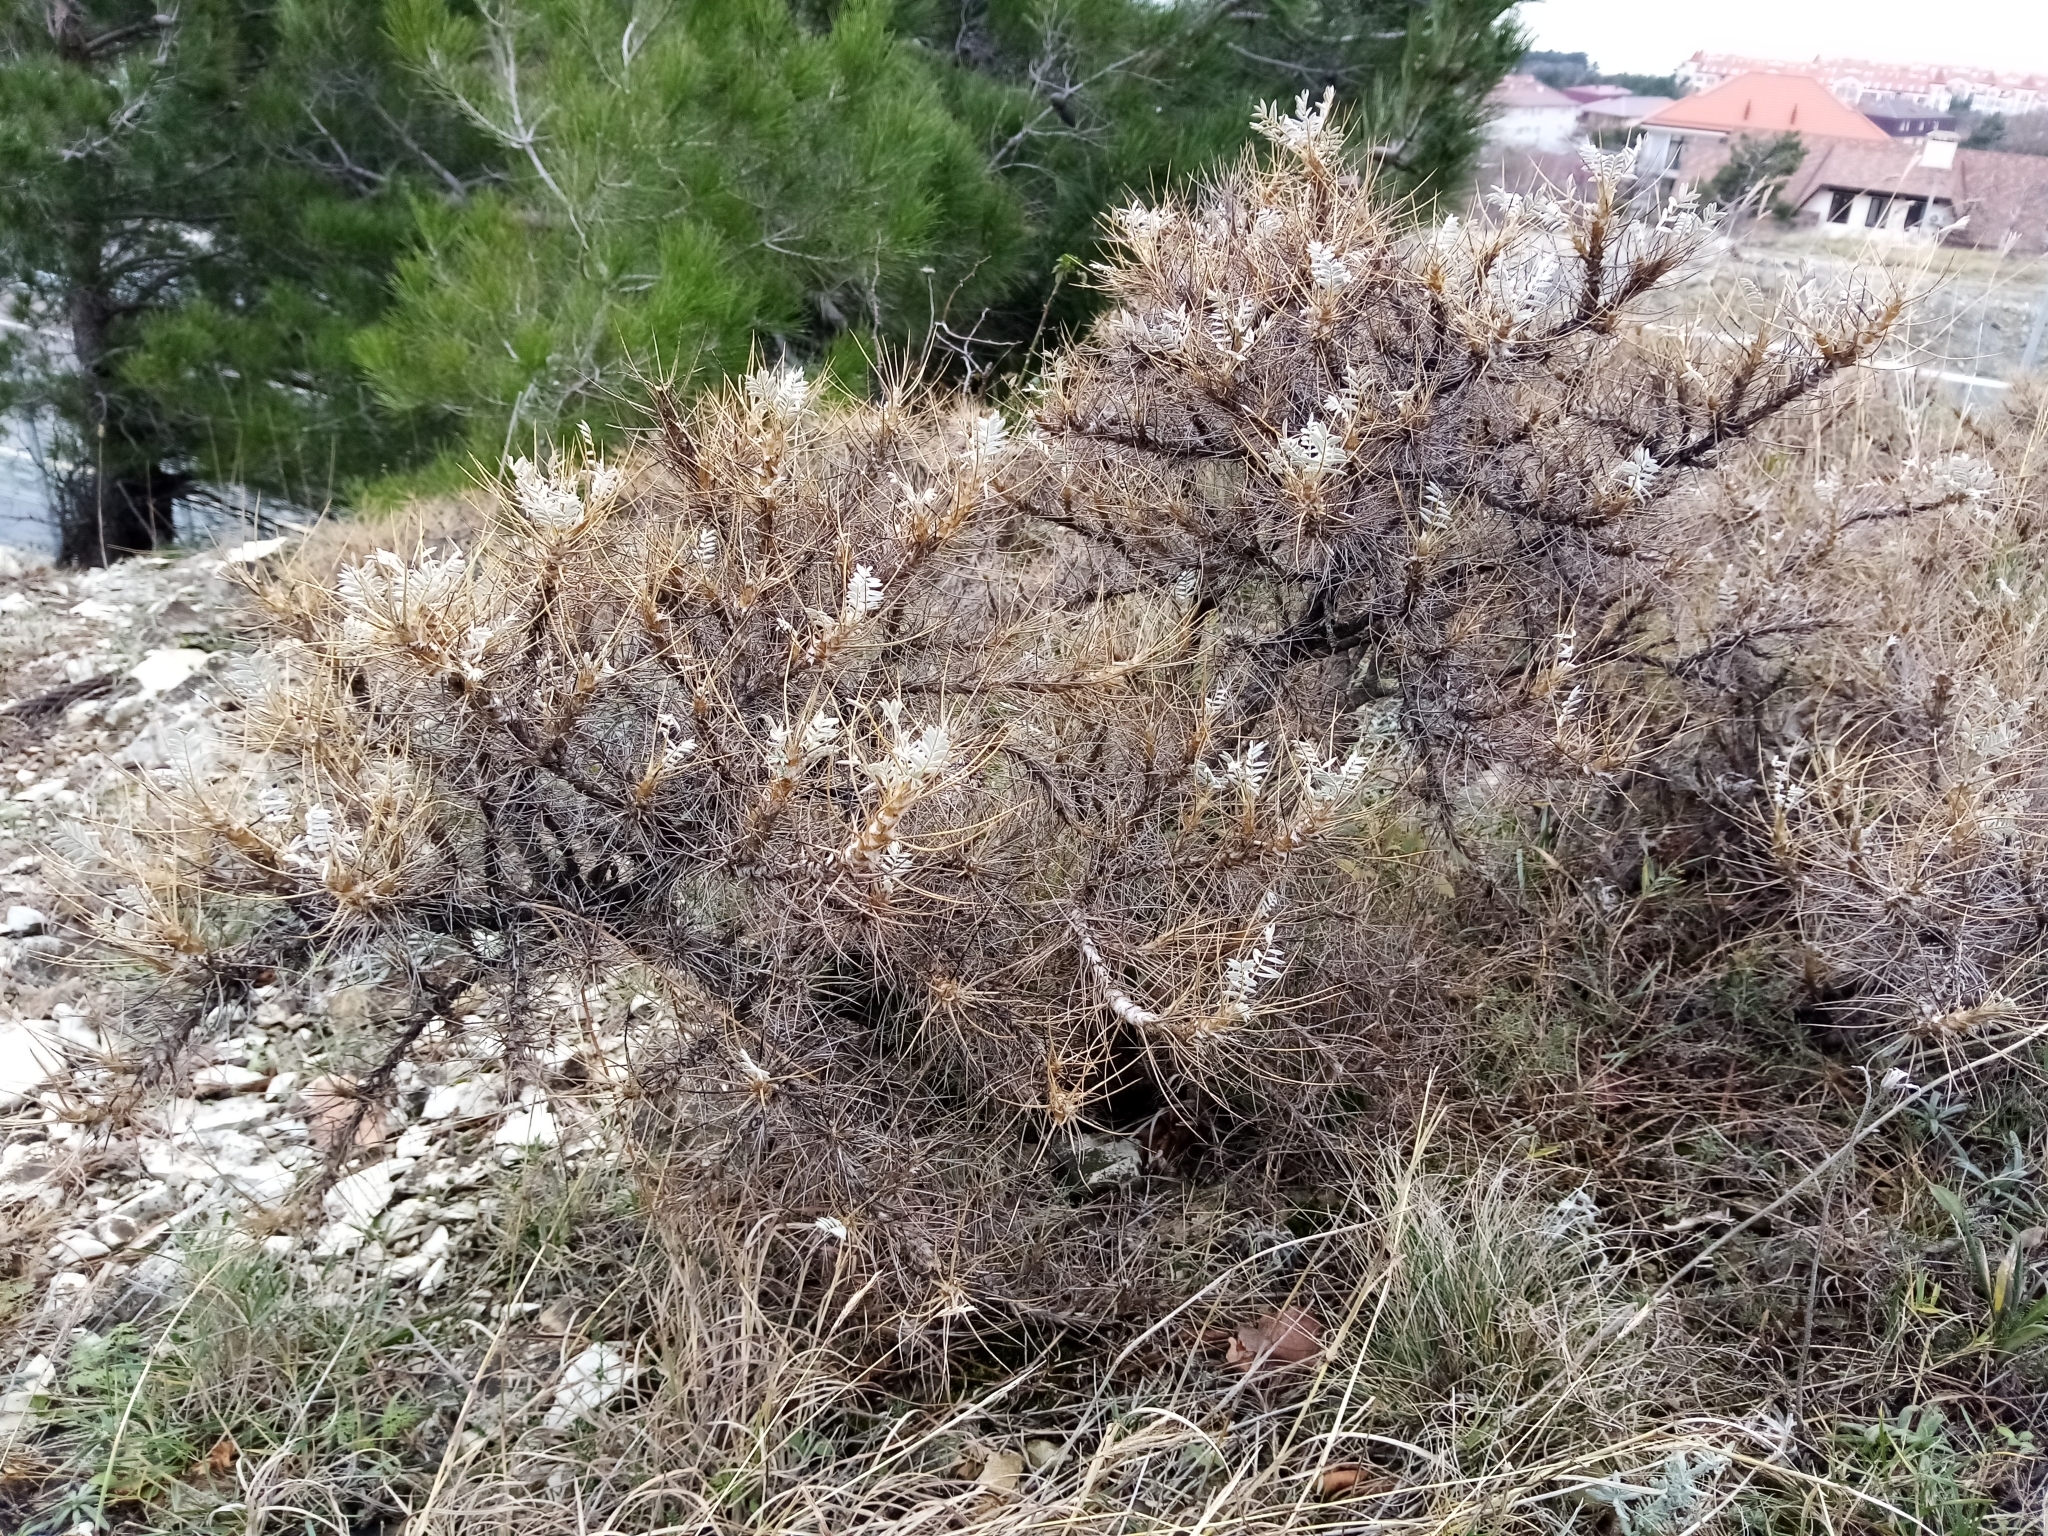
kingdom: Plantae
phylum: Tracheophyta
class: Magnoliopsida
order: Fabales
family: Fabaceae
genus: Astragalus
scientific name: Astragalus arnacanthoides
